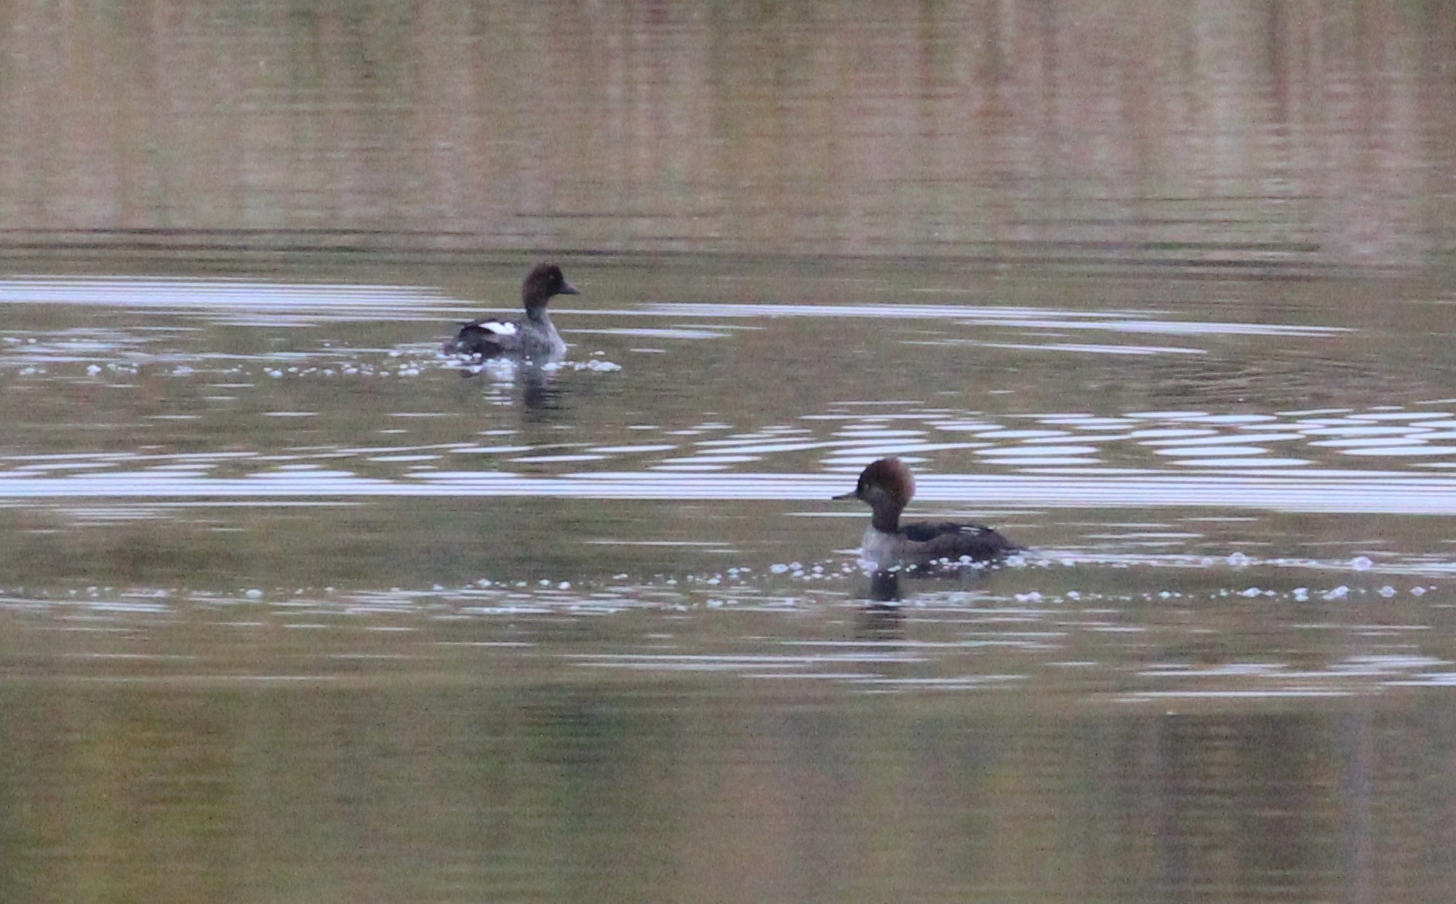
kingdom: Animalia
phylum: Chordata
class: Aves
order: Anseriformes
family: Anatidae
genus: Bucephala
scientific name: Bucephala clangula
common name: Common goldeneye
